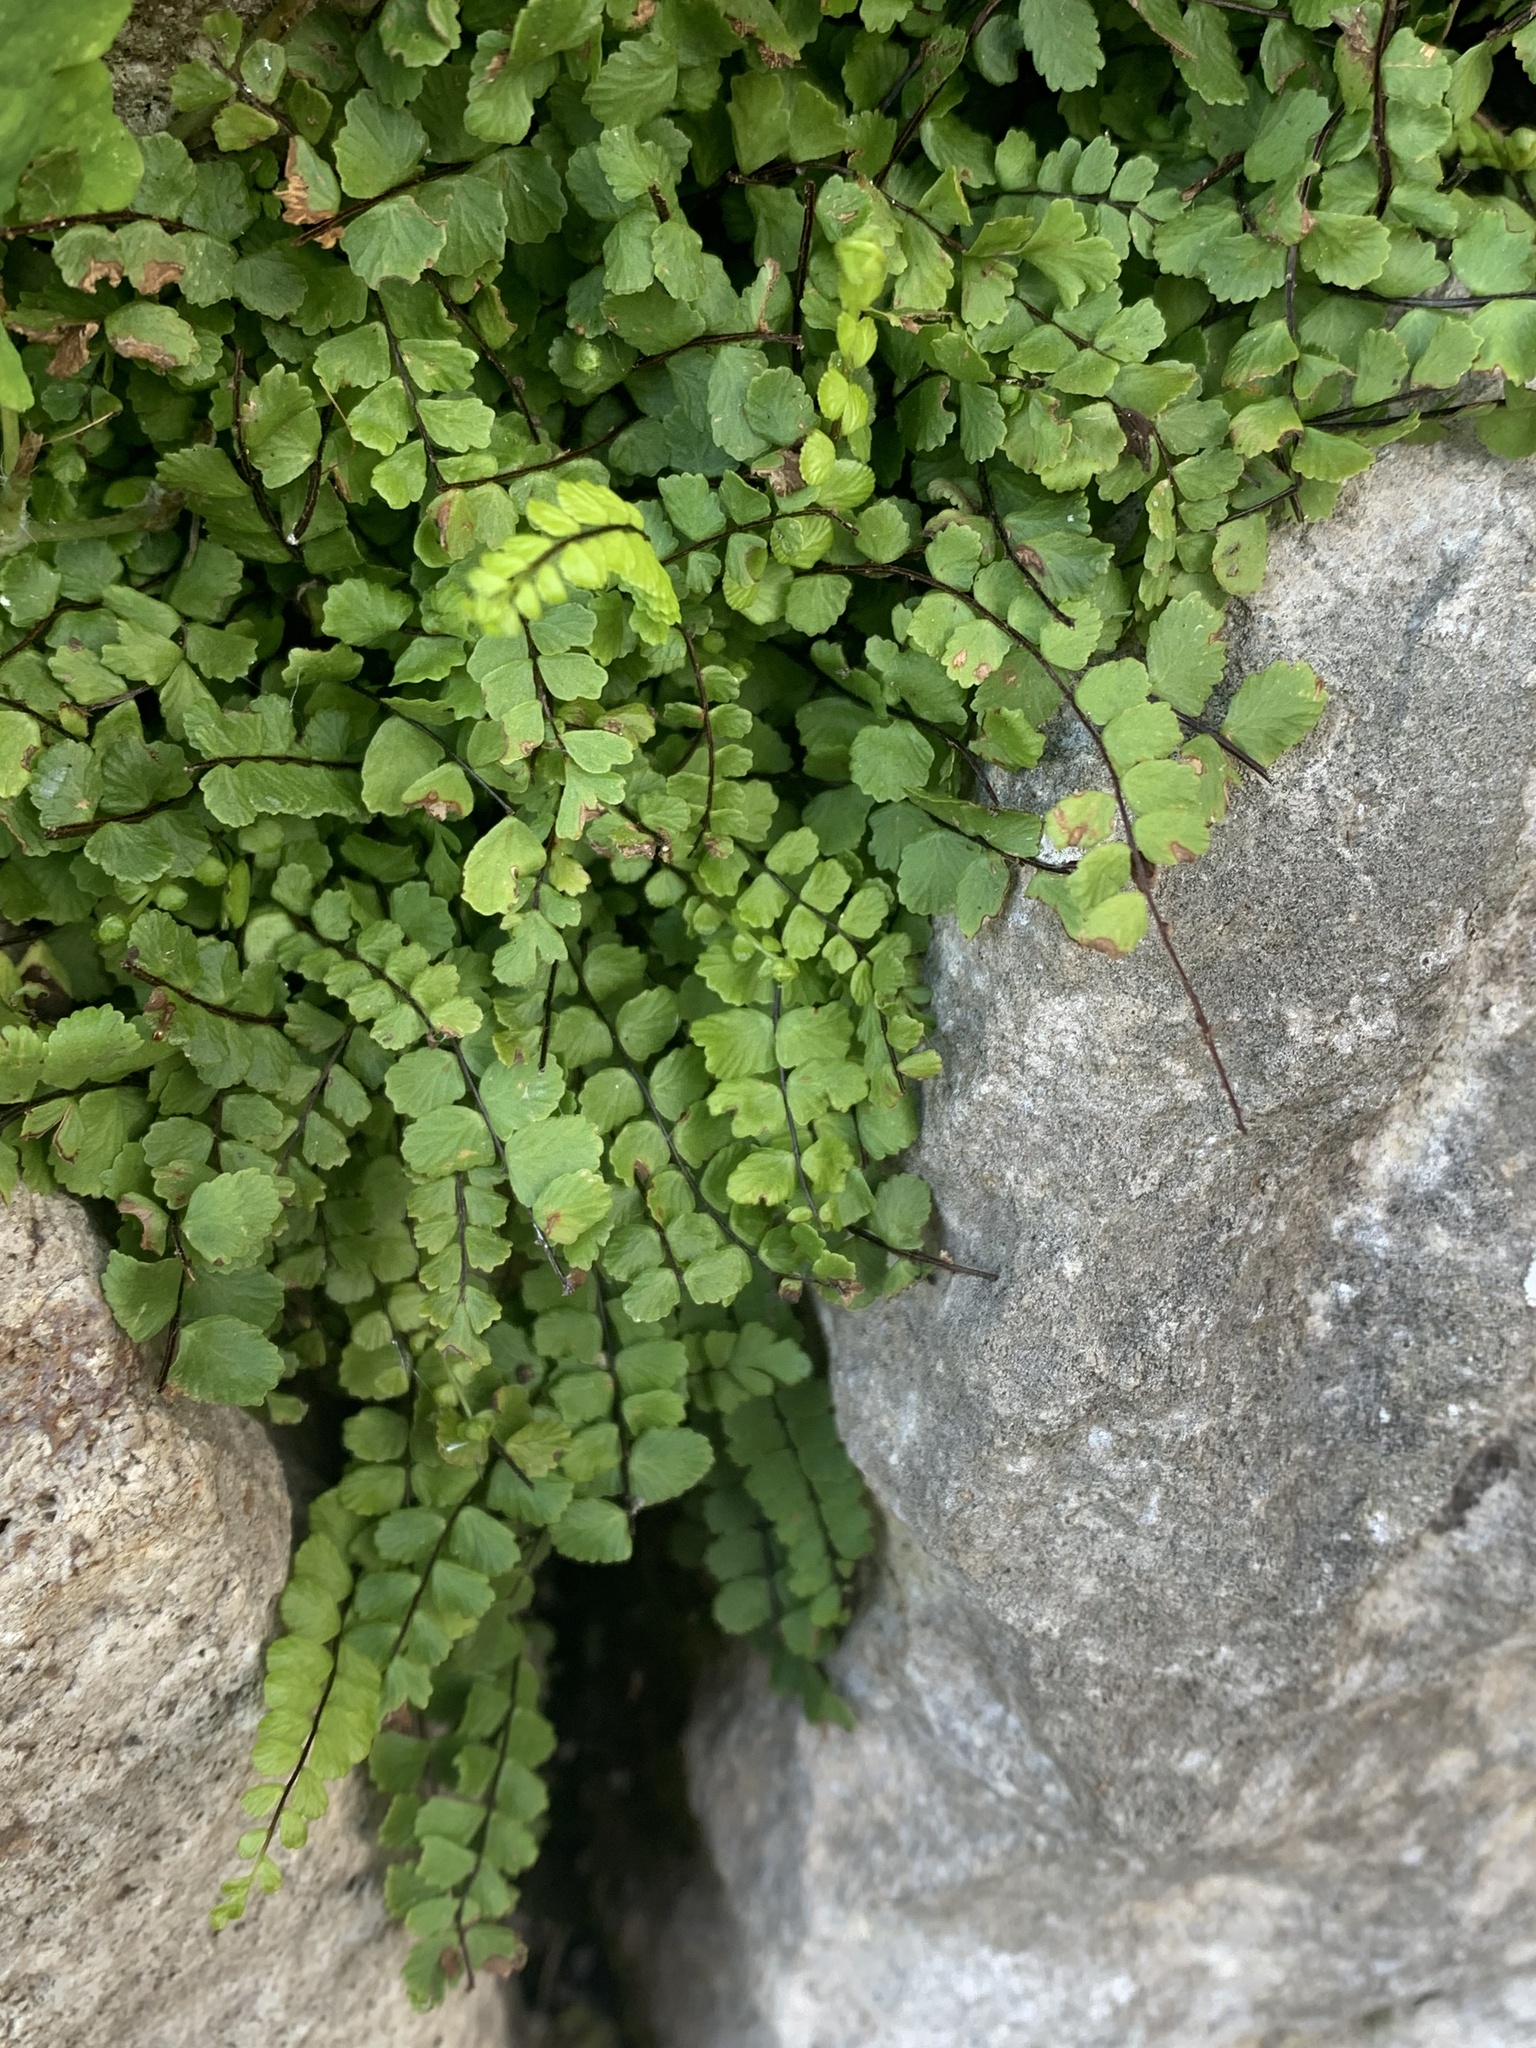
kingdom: Plantae
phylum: Tracheophyta
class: Polypodiopsida
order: Polypodiales
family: Aspleniaceae
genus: Asplenium
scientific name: Asplenium trichomanes
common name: Maidenhair spleenwort
